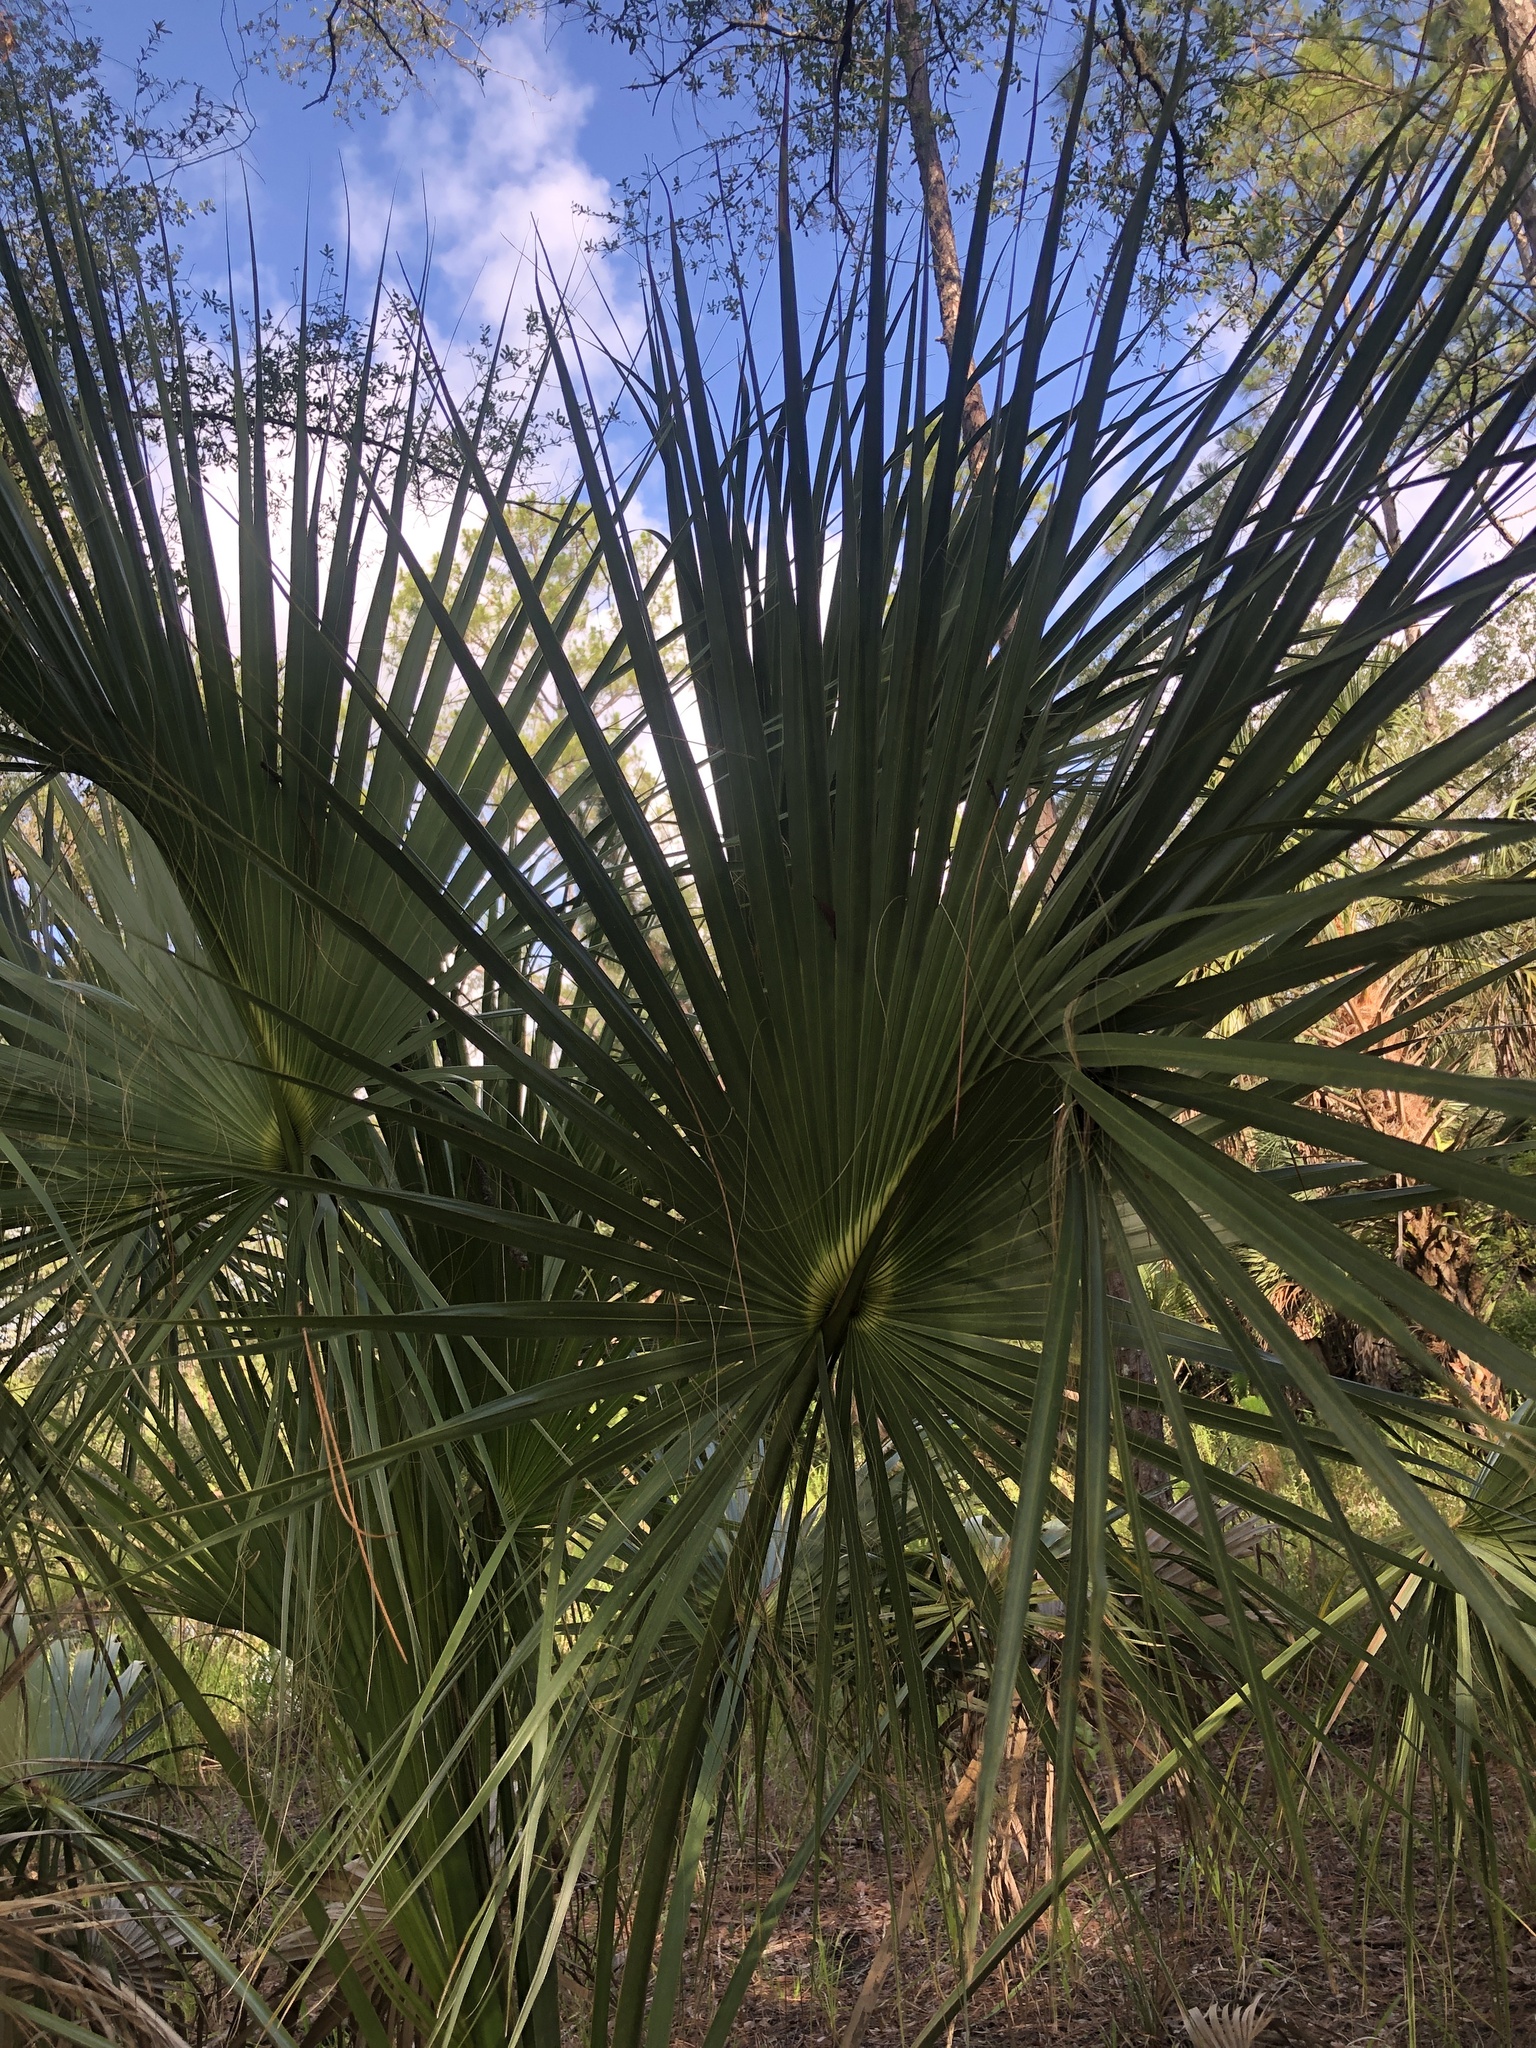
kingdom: Plantae
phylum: Tracheophyta
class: Liliopsida
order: Arecales
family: Arecaceae
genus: Sabal
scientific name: Sabal palmetto
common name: Blue palmetto
